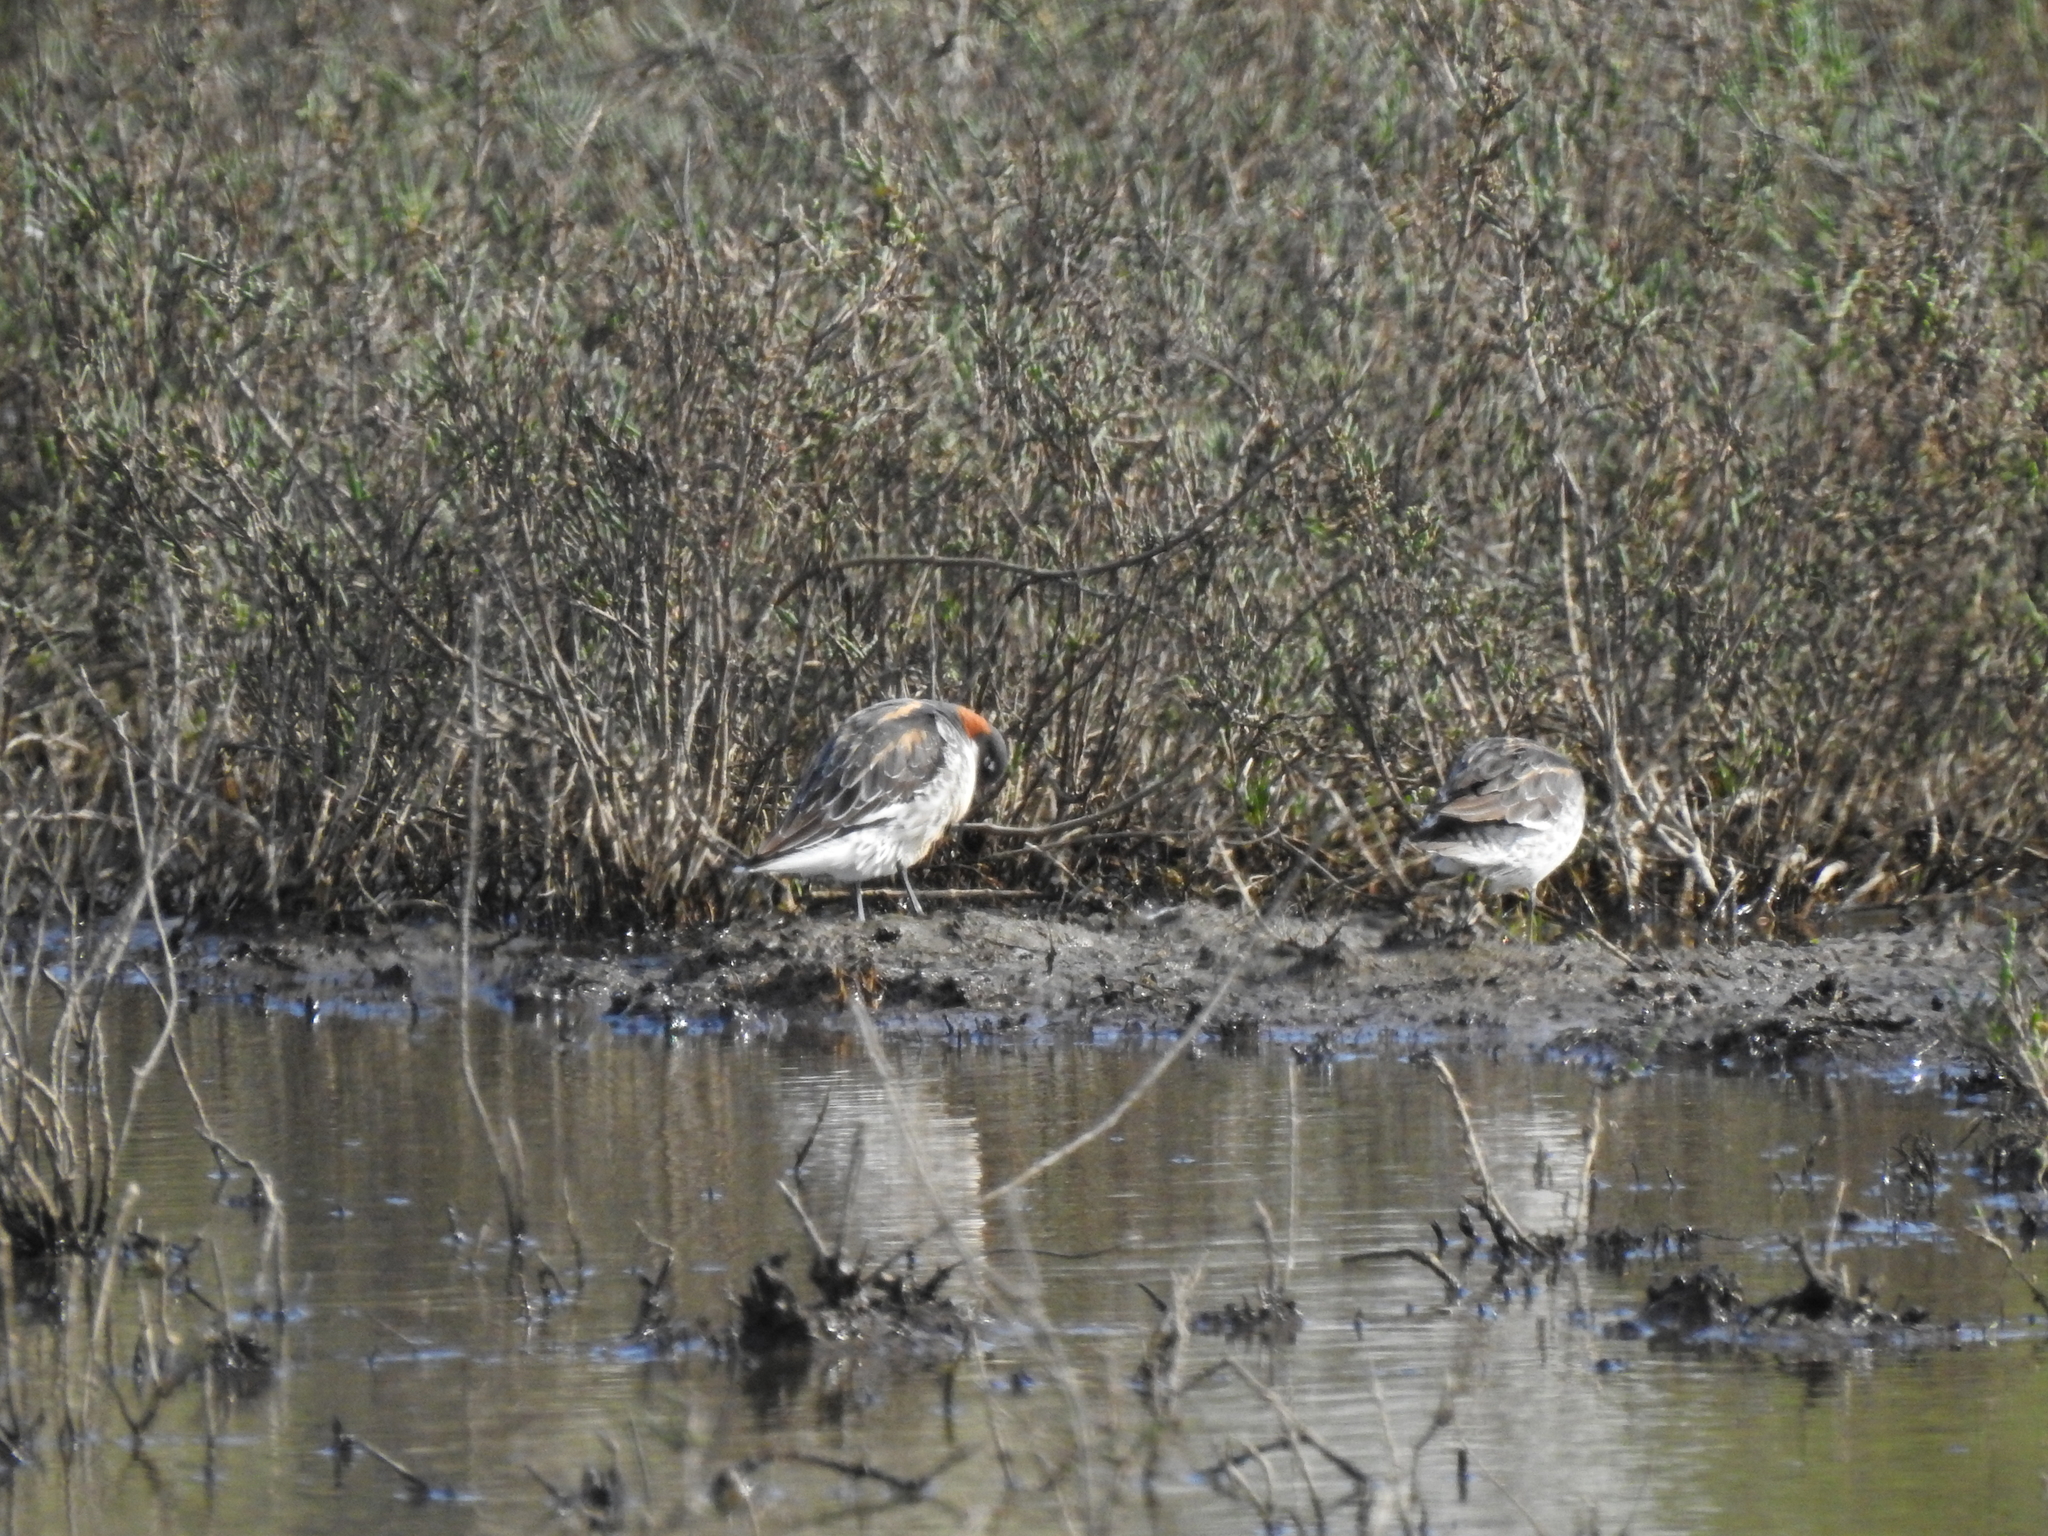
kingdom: Animalia
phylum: Chordata
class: Aves
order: Charadriiformes
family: Scolopacidae
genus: Phalaropus
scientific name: Phalaropus lobatus
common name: Red-necked phalarope
